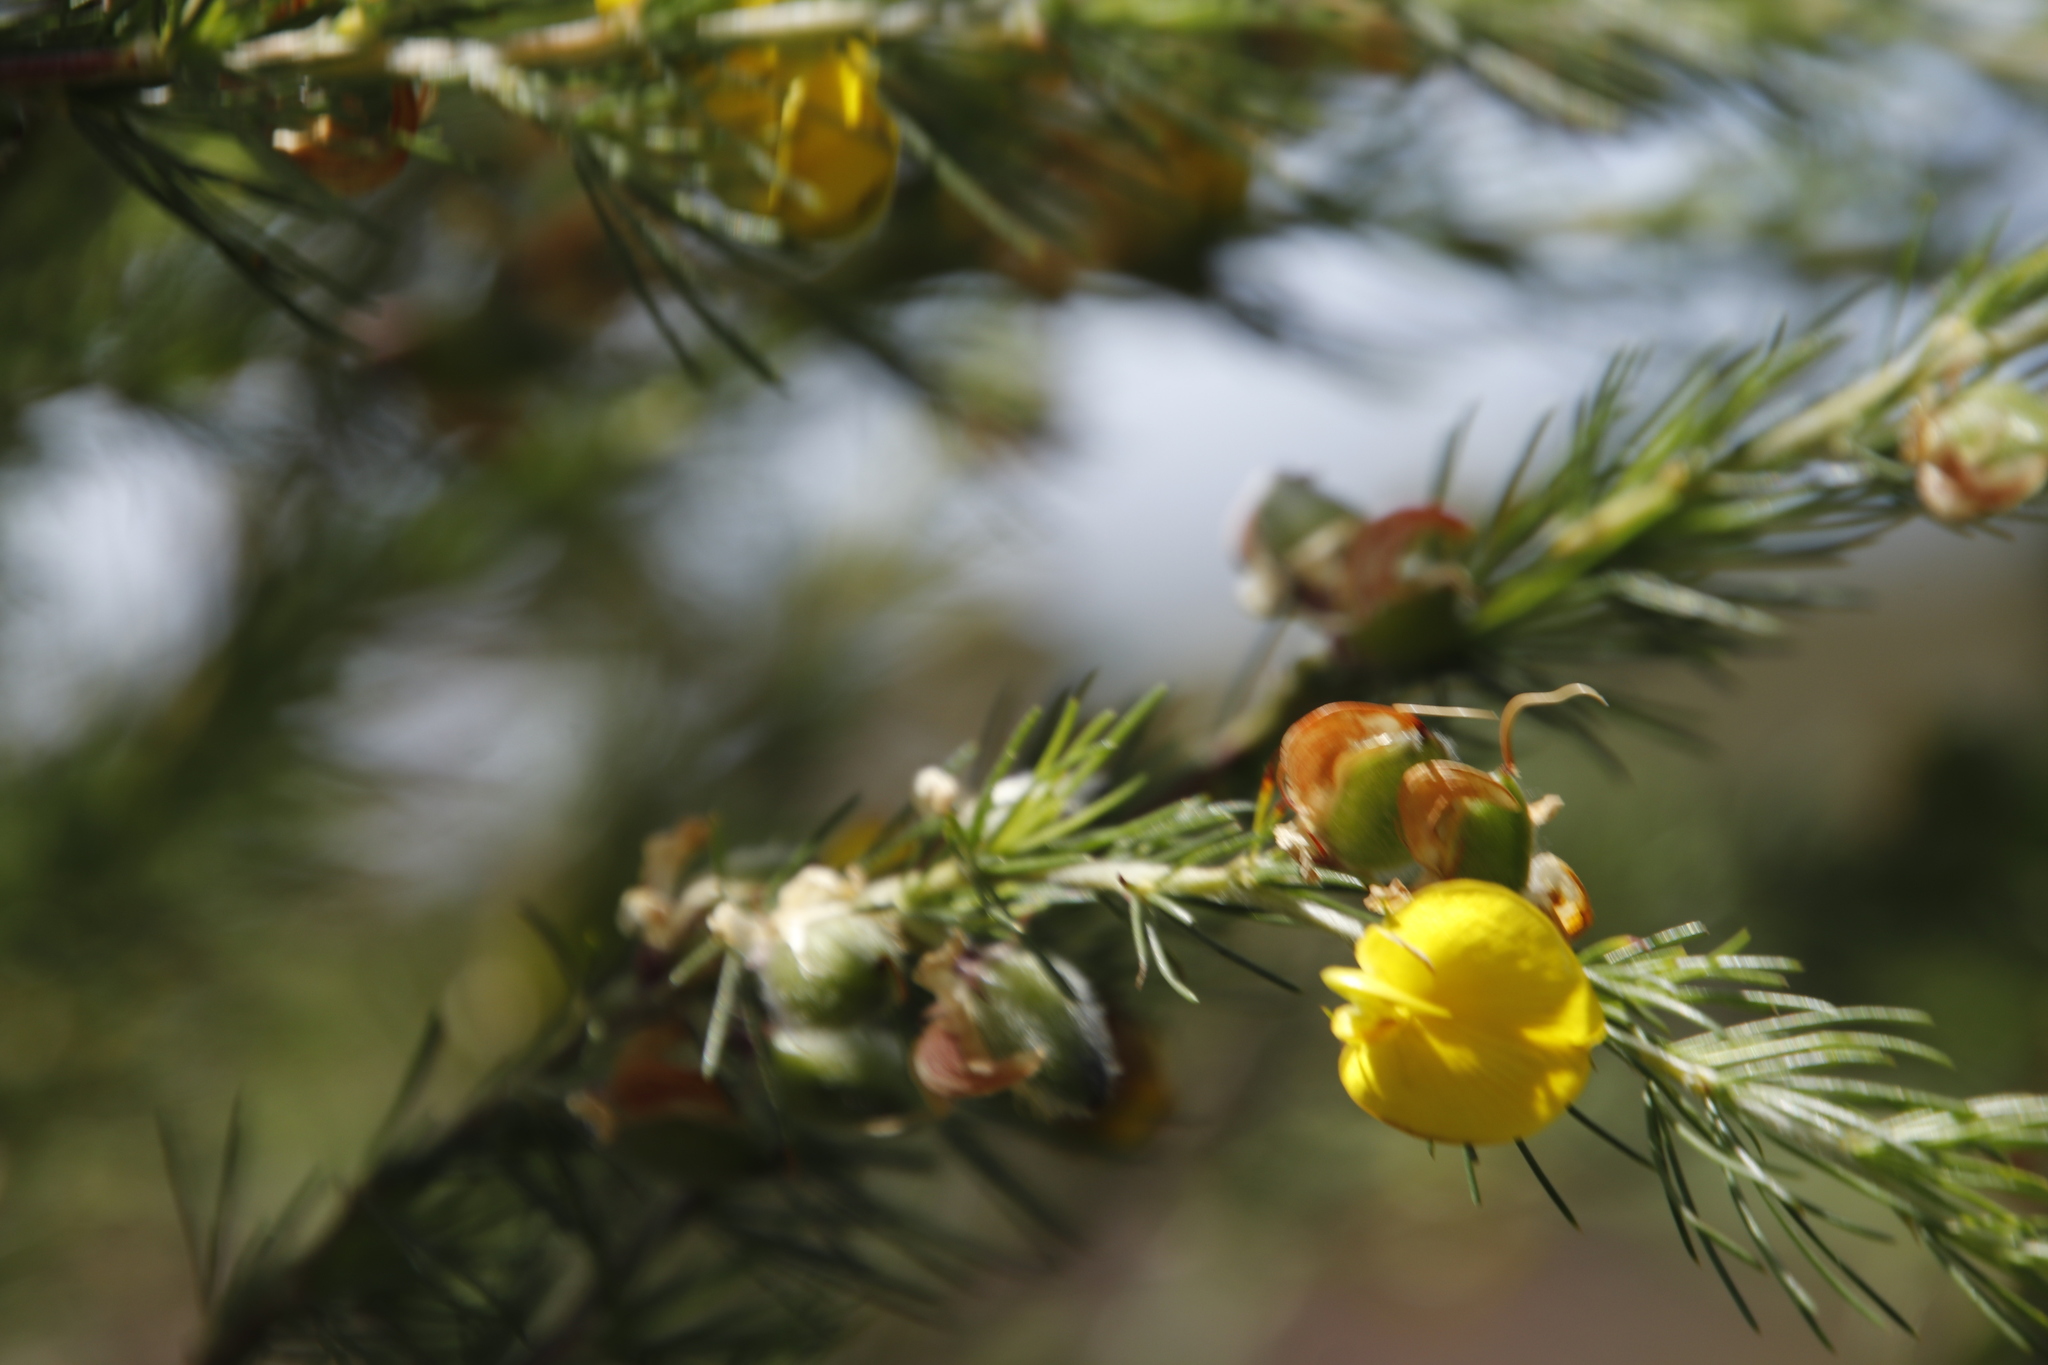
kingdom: Plantae
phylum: Tracheophyta
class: Magnoliopsida
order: Fabales
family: Fabaceae
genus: Aspalathus
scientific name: Aspalathus uniflora
